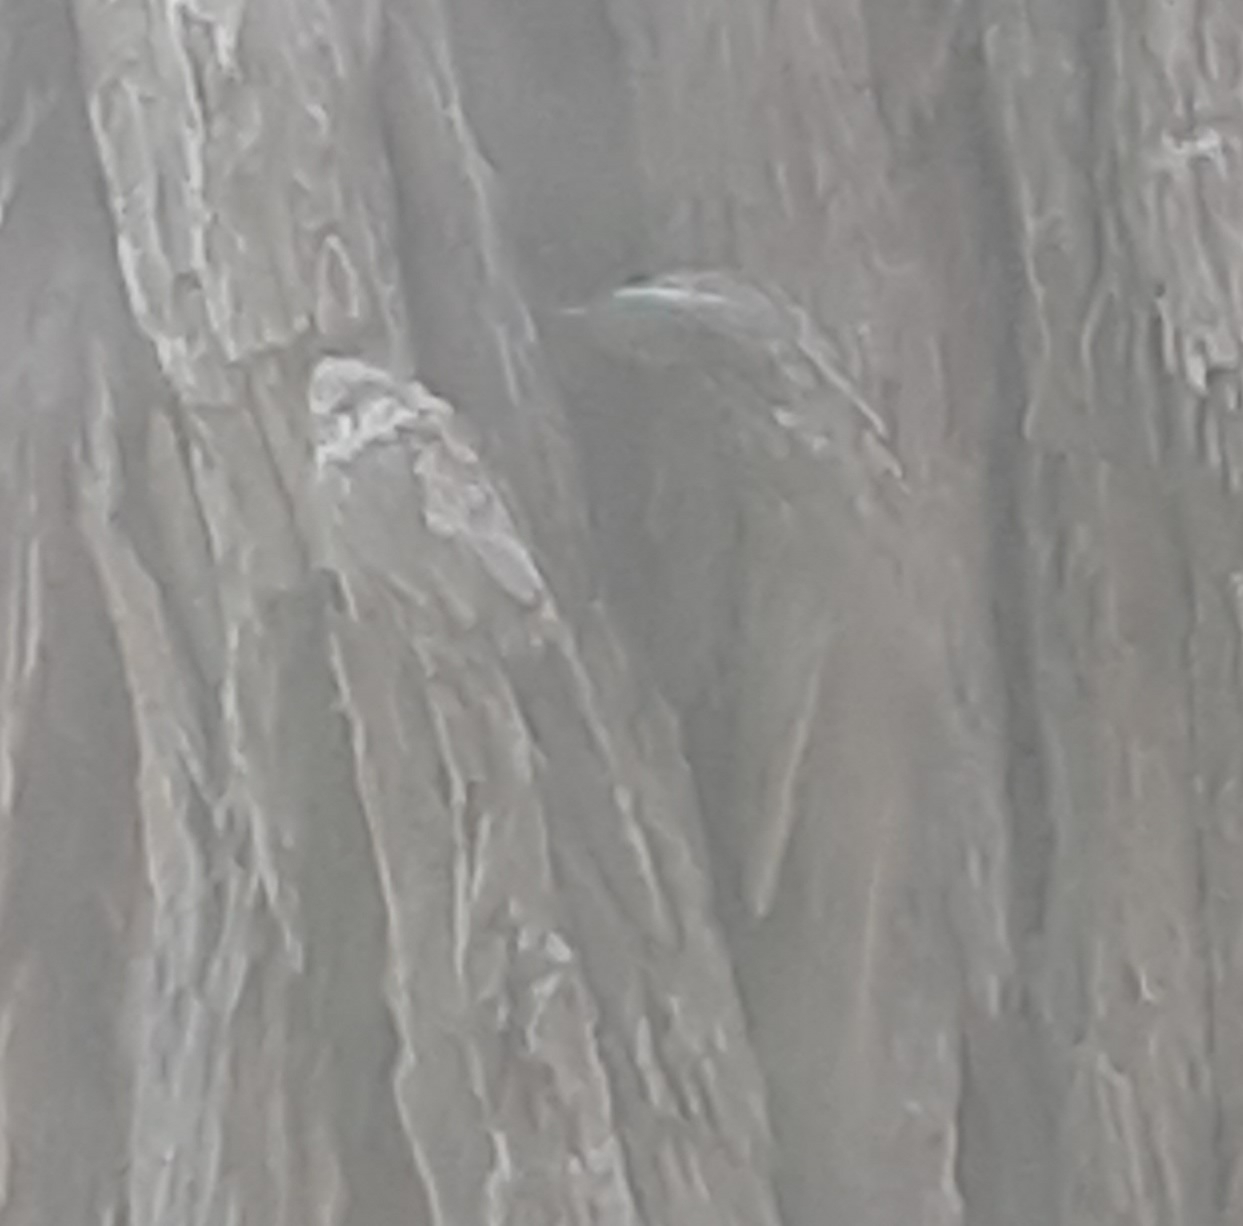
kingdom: Animalia
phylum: Chordata
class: Aves
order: Passeriformes
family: Certhiidae
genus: Certhia
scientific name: Certhia americana
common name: Brown creeper
